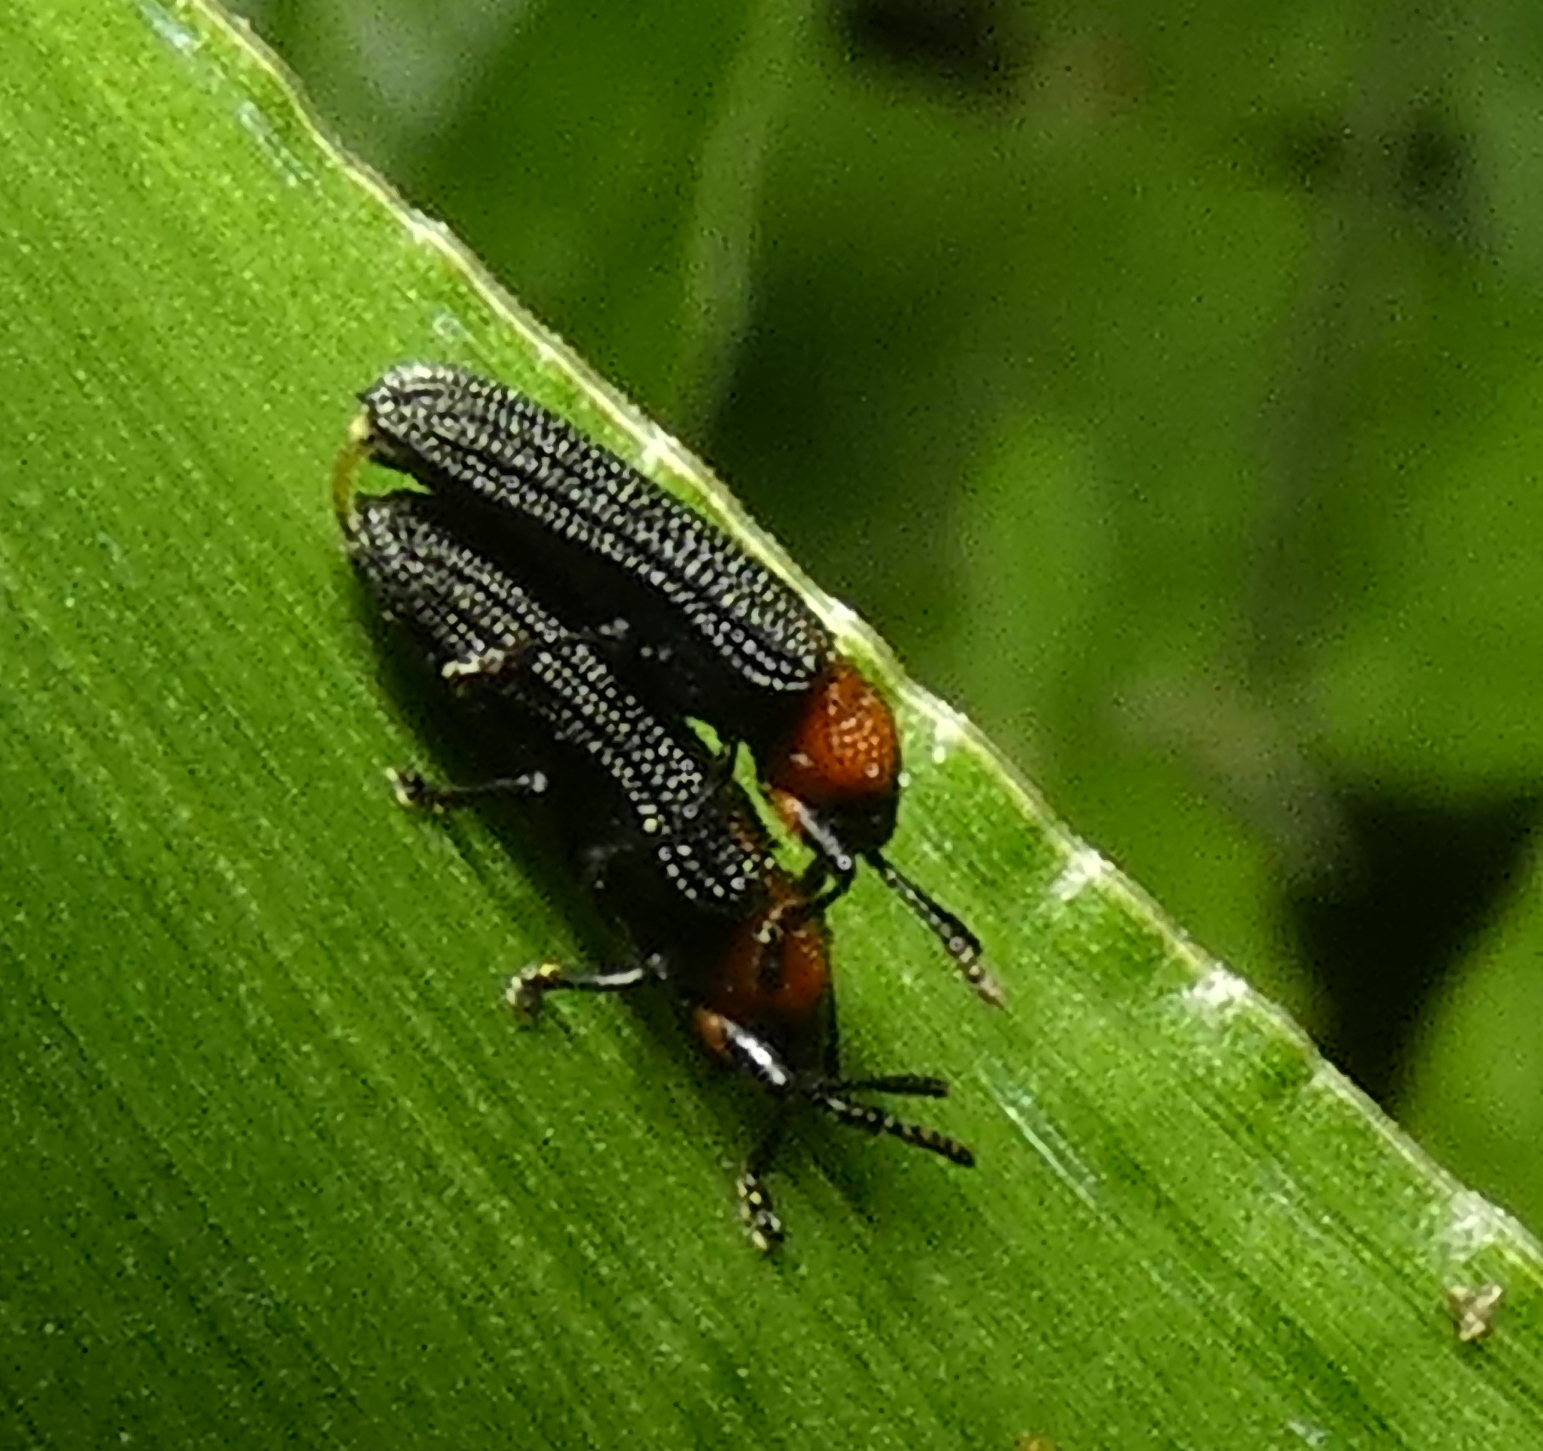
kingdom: Animalia
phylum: Arthropoda
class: Insecta
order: Coleoptera
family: Chrysomelidae
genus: Chalepus
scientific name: Chalepus notula
